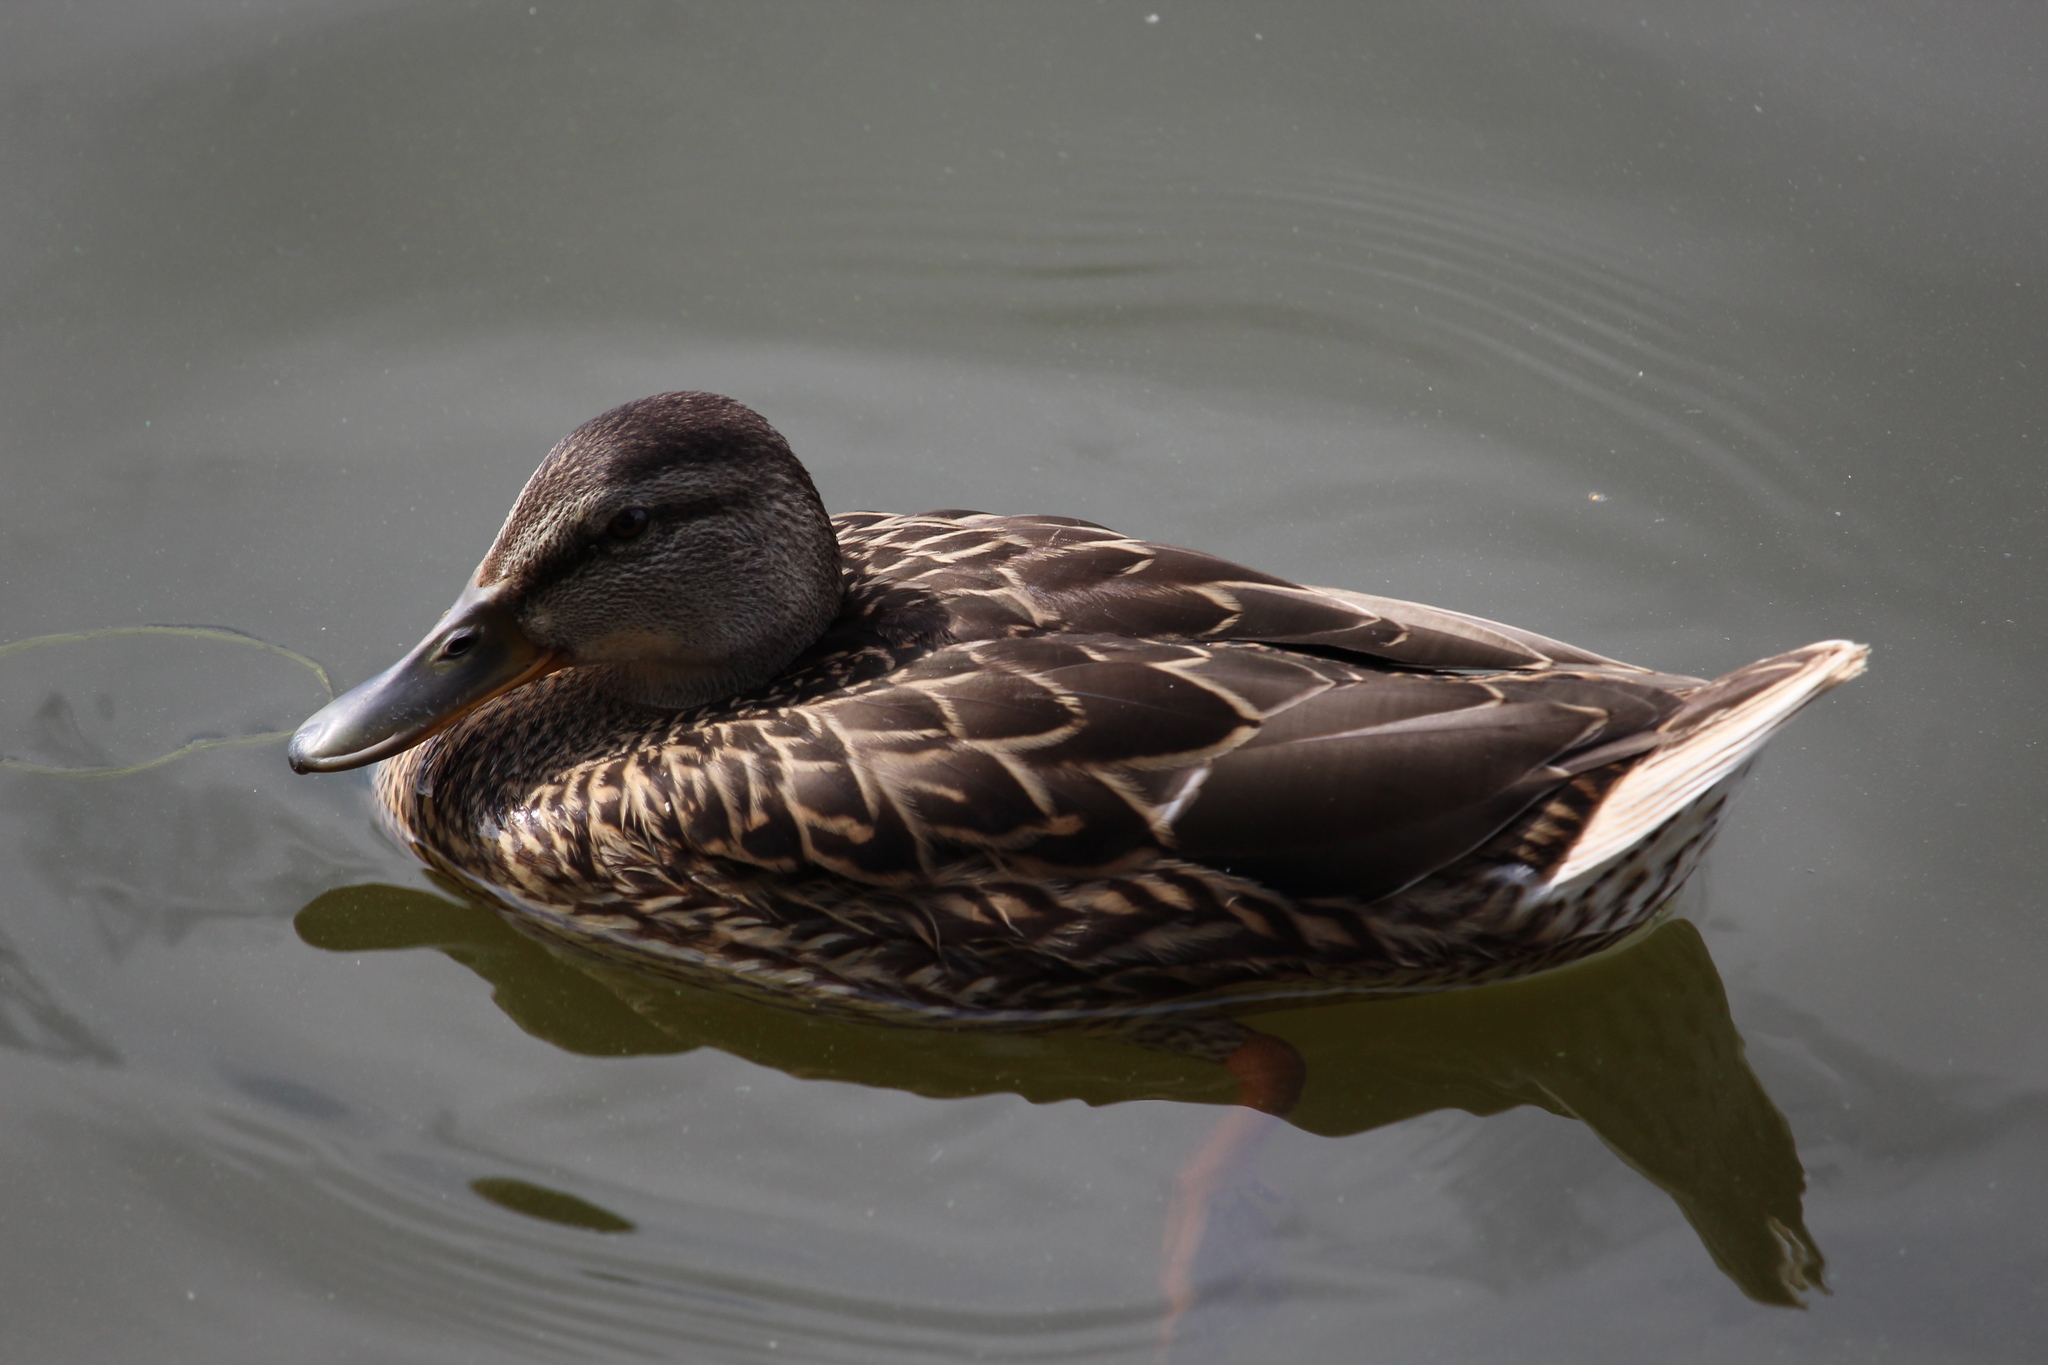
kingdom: Animalia
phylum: Chordata
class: Aves
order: Anseriformes
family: Anatidae
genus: Anas
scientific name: Anas platyrhynchos
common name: Mallard
